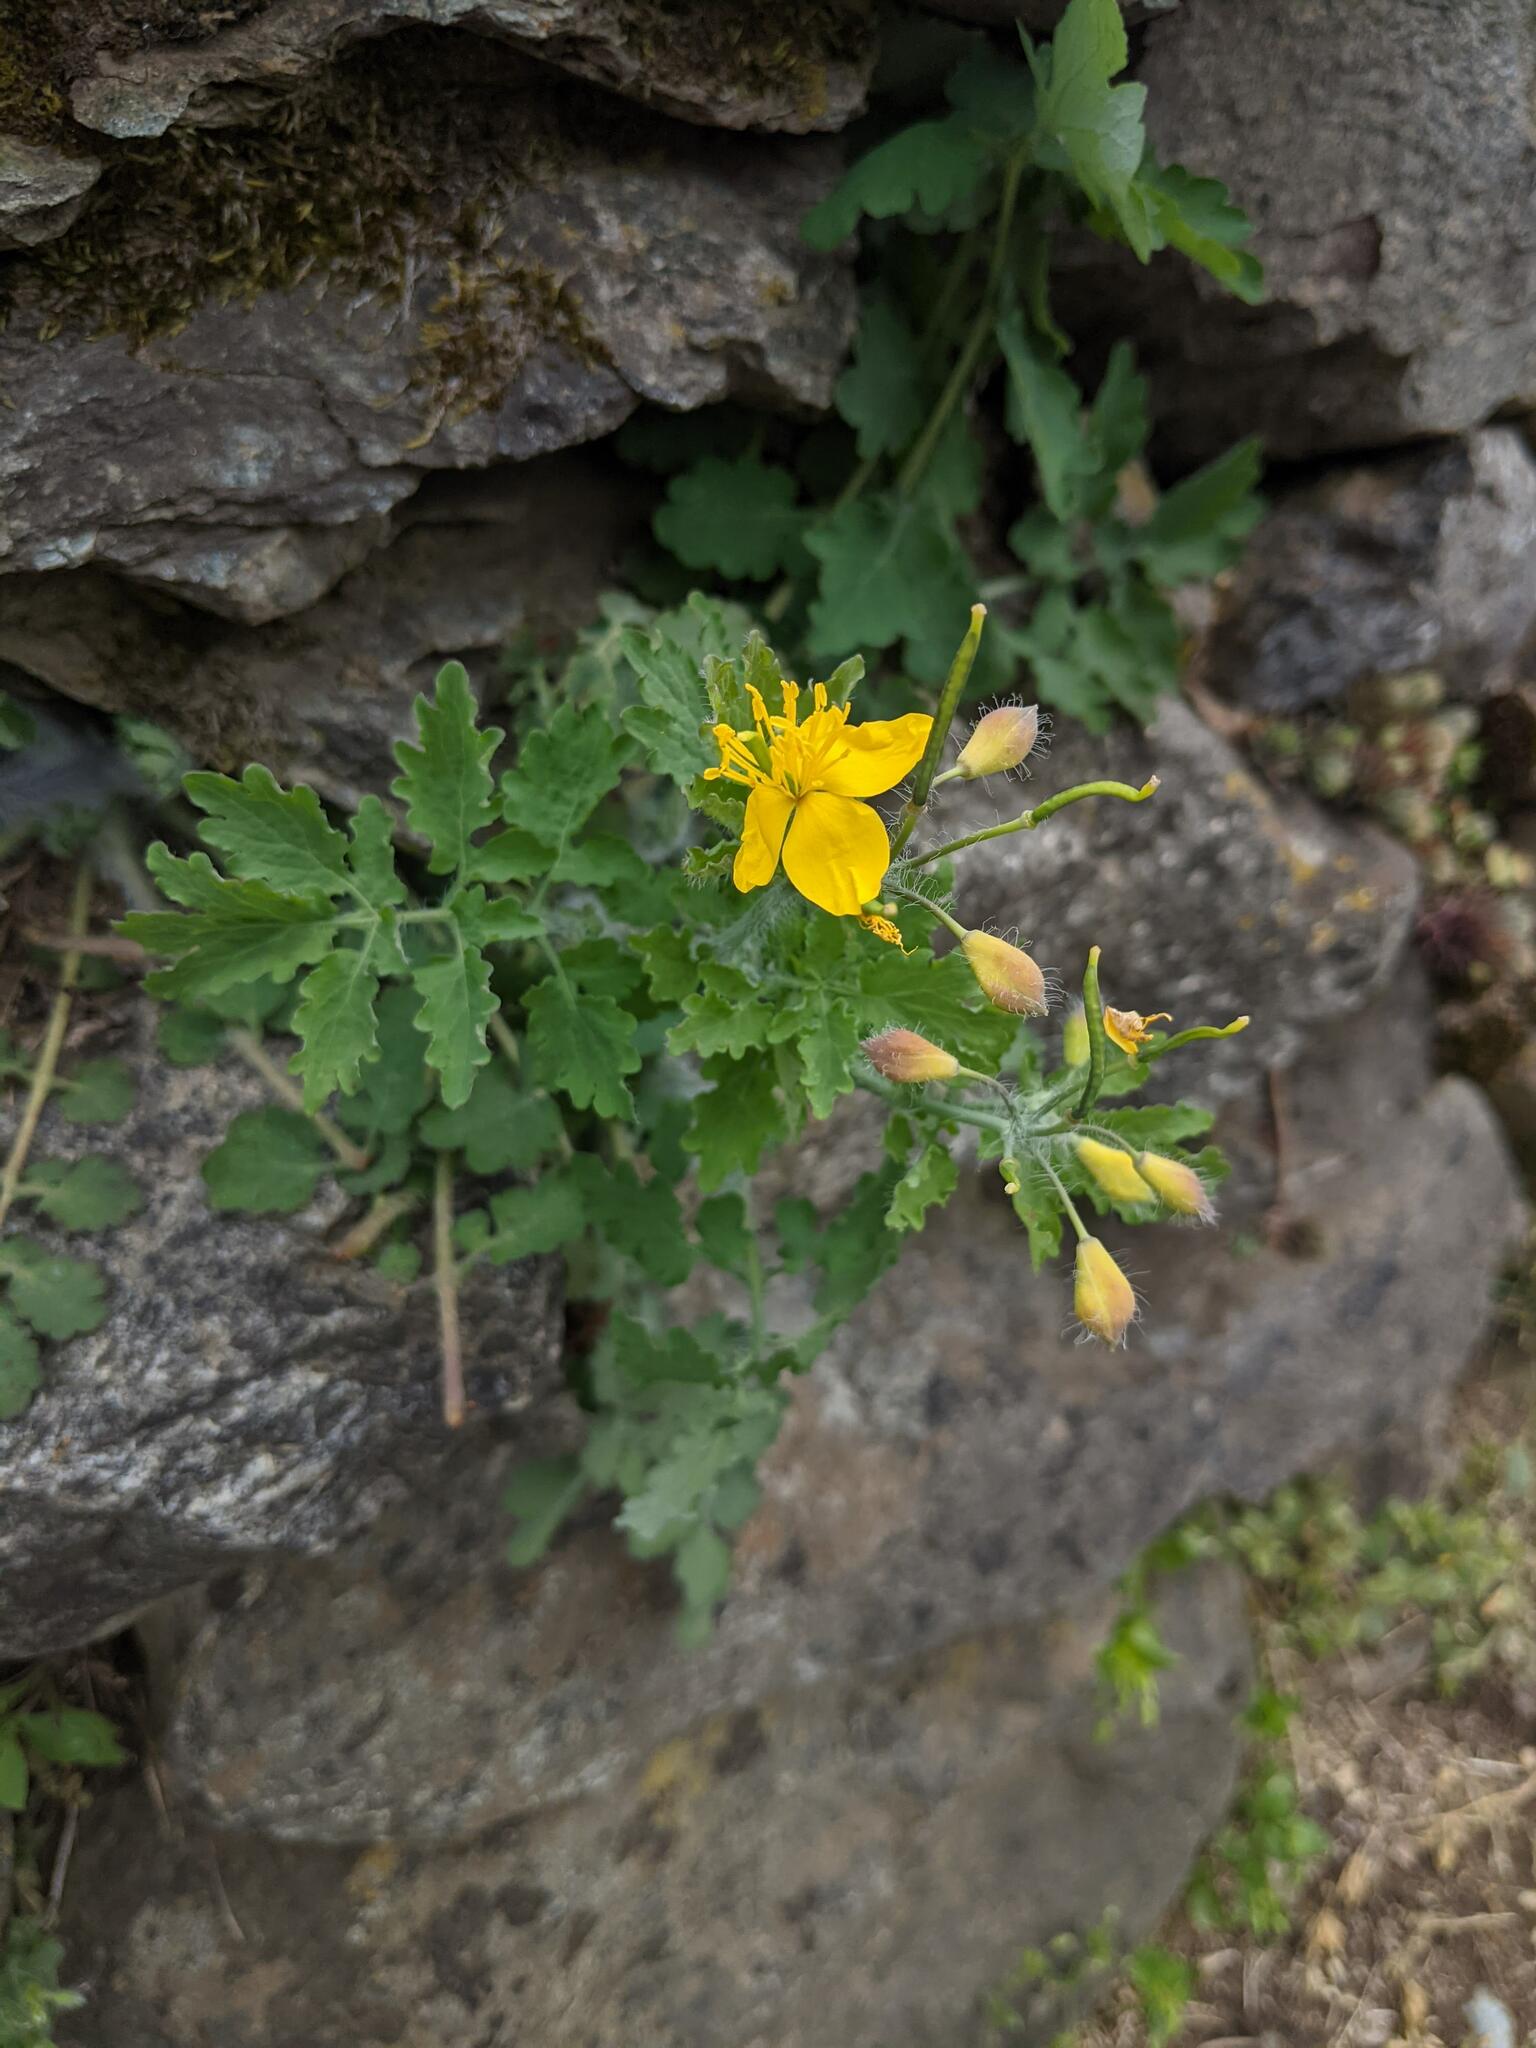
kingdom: Plantae
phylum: Tracheophyta
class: Magnoliopsida
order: Ranunculales
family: Papaveraceae
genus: Chelidonium
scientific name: Chelidonium majus
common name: Greater celandine
